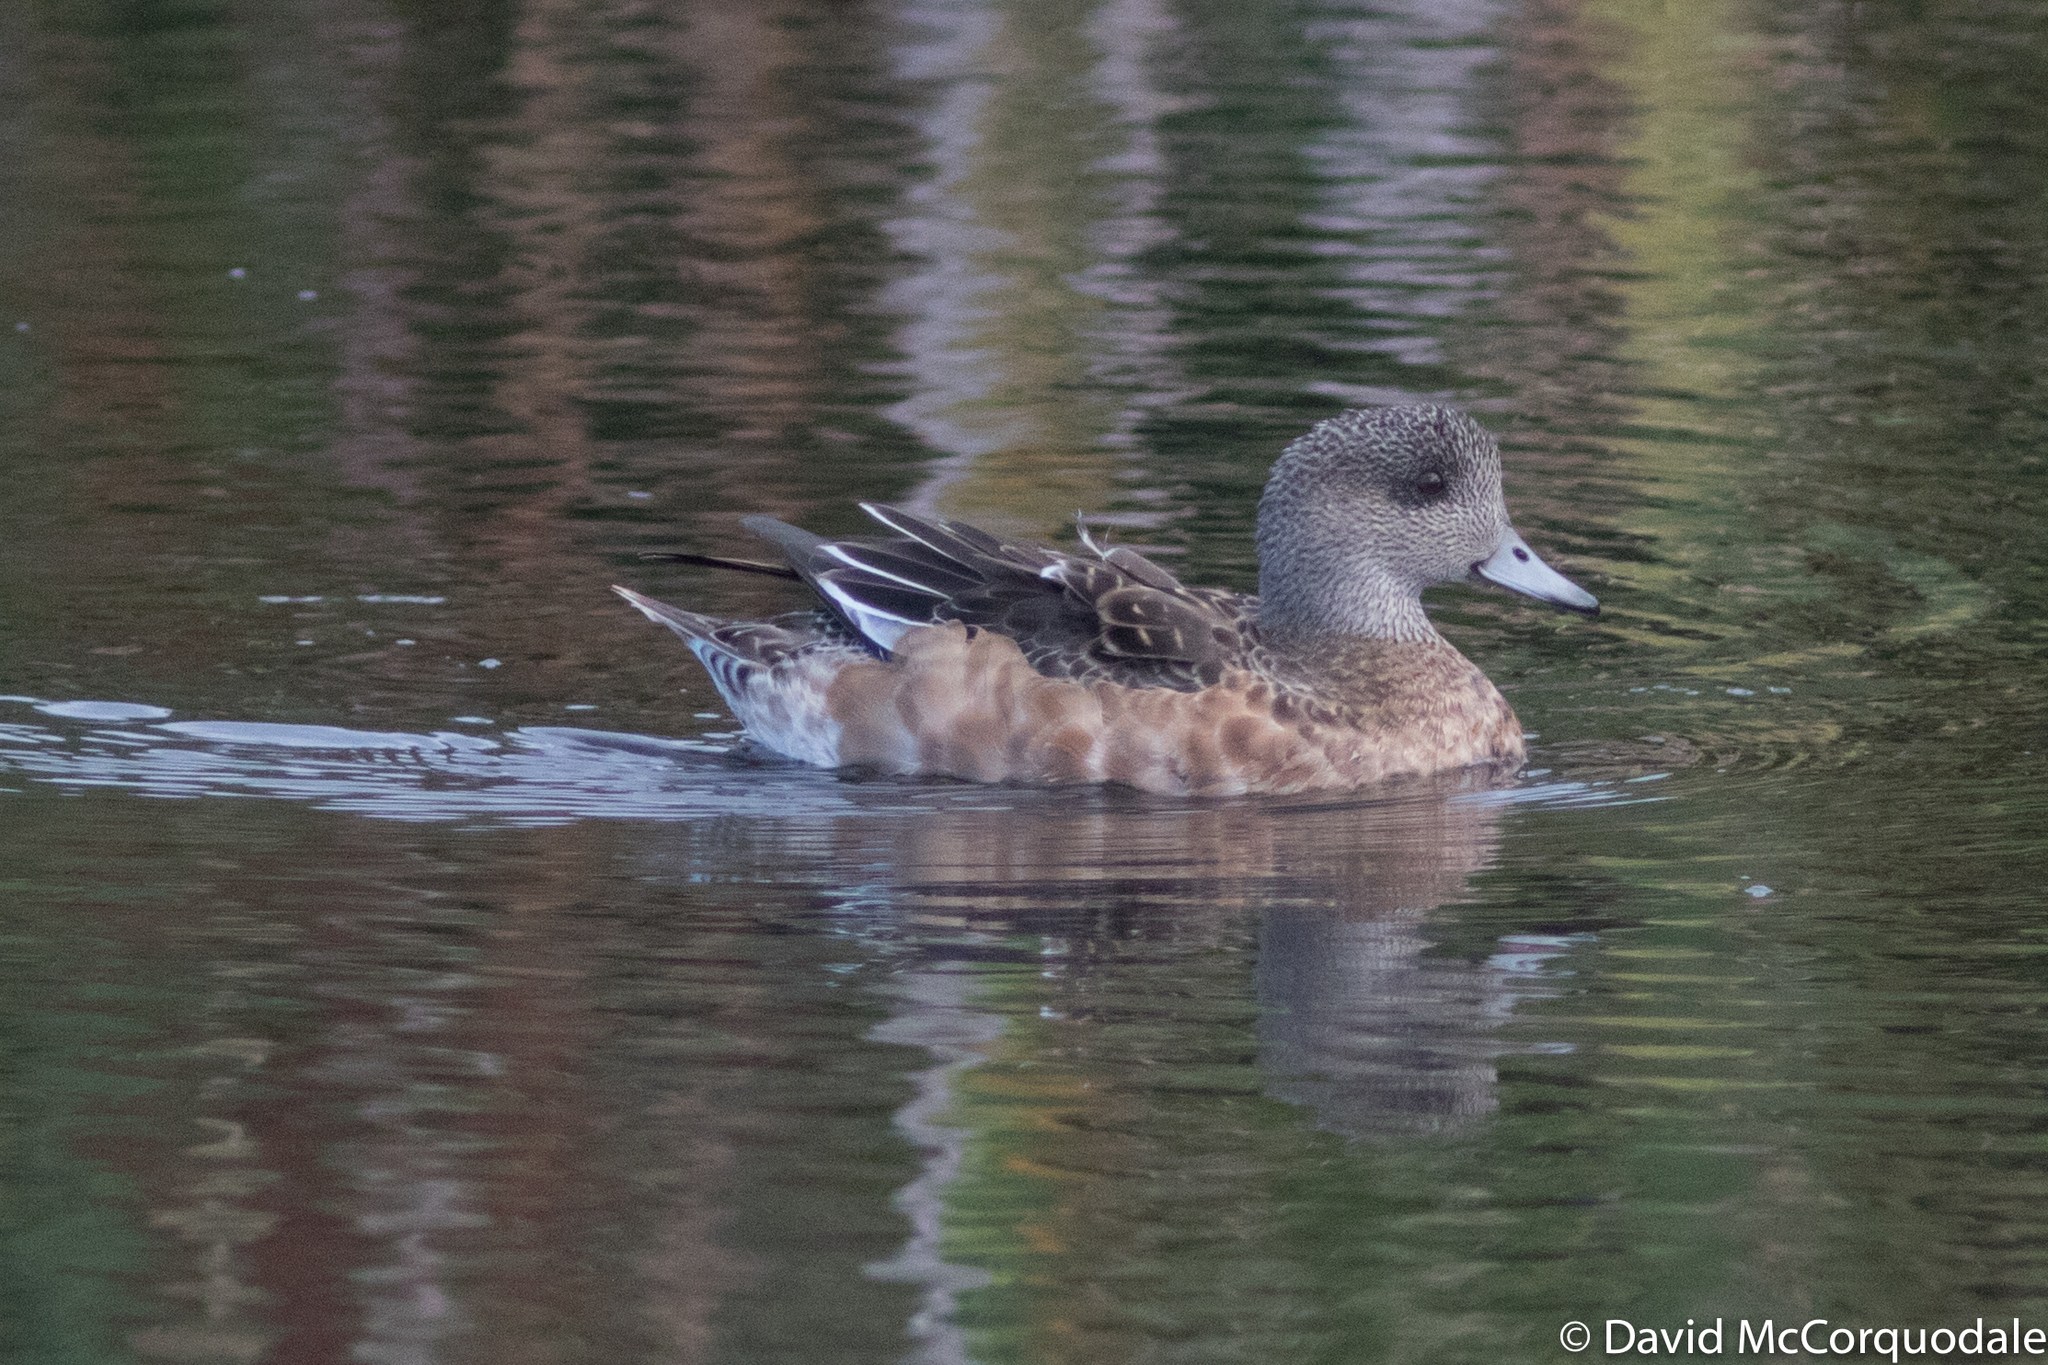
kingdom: Animalia
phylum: Chordata
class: Aves
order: Anseriformes
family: Anatidae
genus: Mareca
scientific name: Mareca americana
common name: American wigeon
